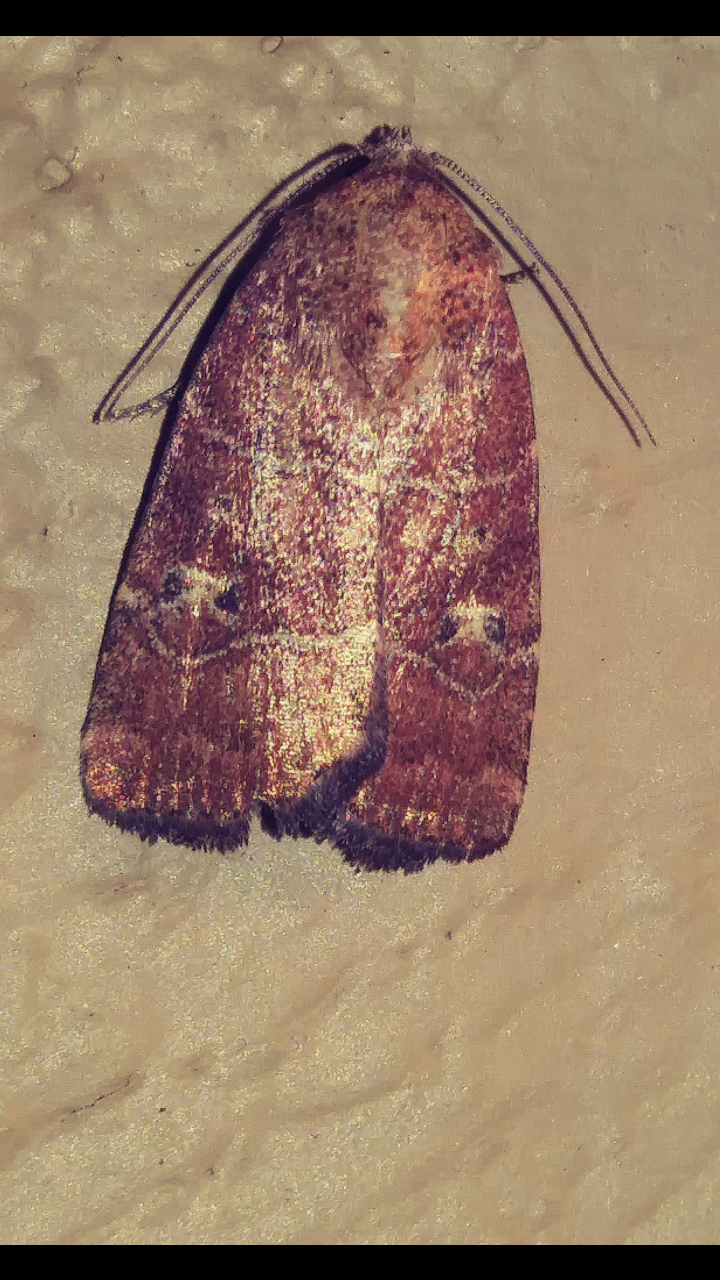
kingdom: Animalia
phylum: Arthropoda
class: Insecta
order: Lepidoptera
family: Noctuidae
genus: Elaphria
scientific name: Elaphria grata
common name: Grateful midget moth
